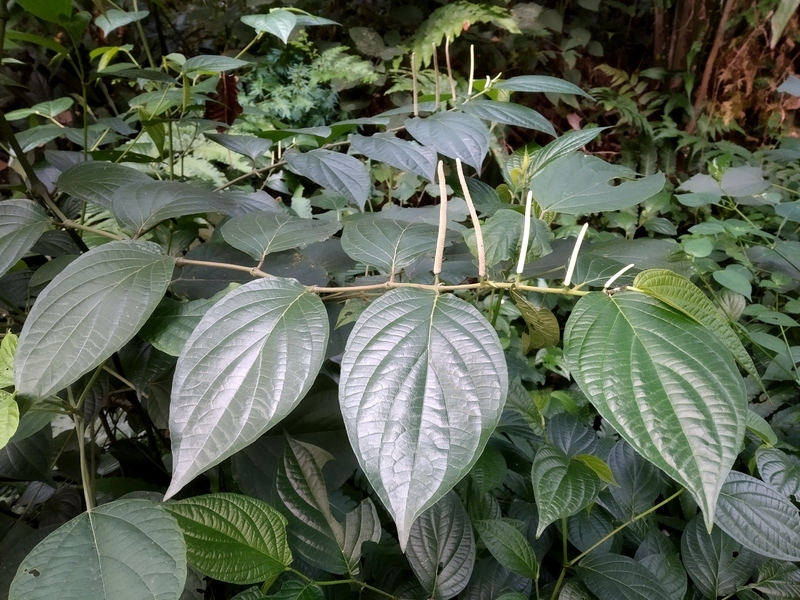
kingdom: Plantae
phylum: Tracheophyta
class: Magnoliopsida
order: Piperales
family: Piperaceae
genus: Piper
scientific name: Piper hispidum
